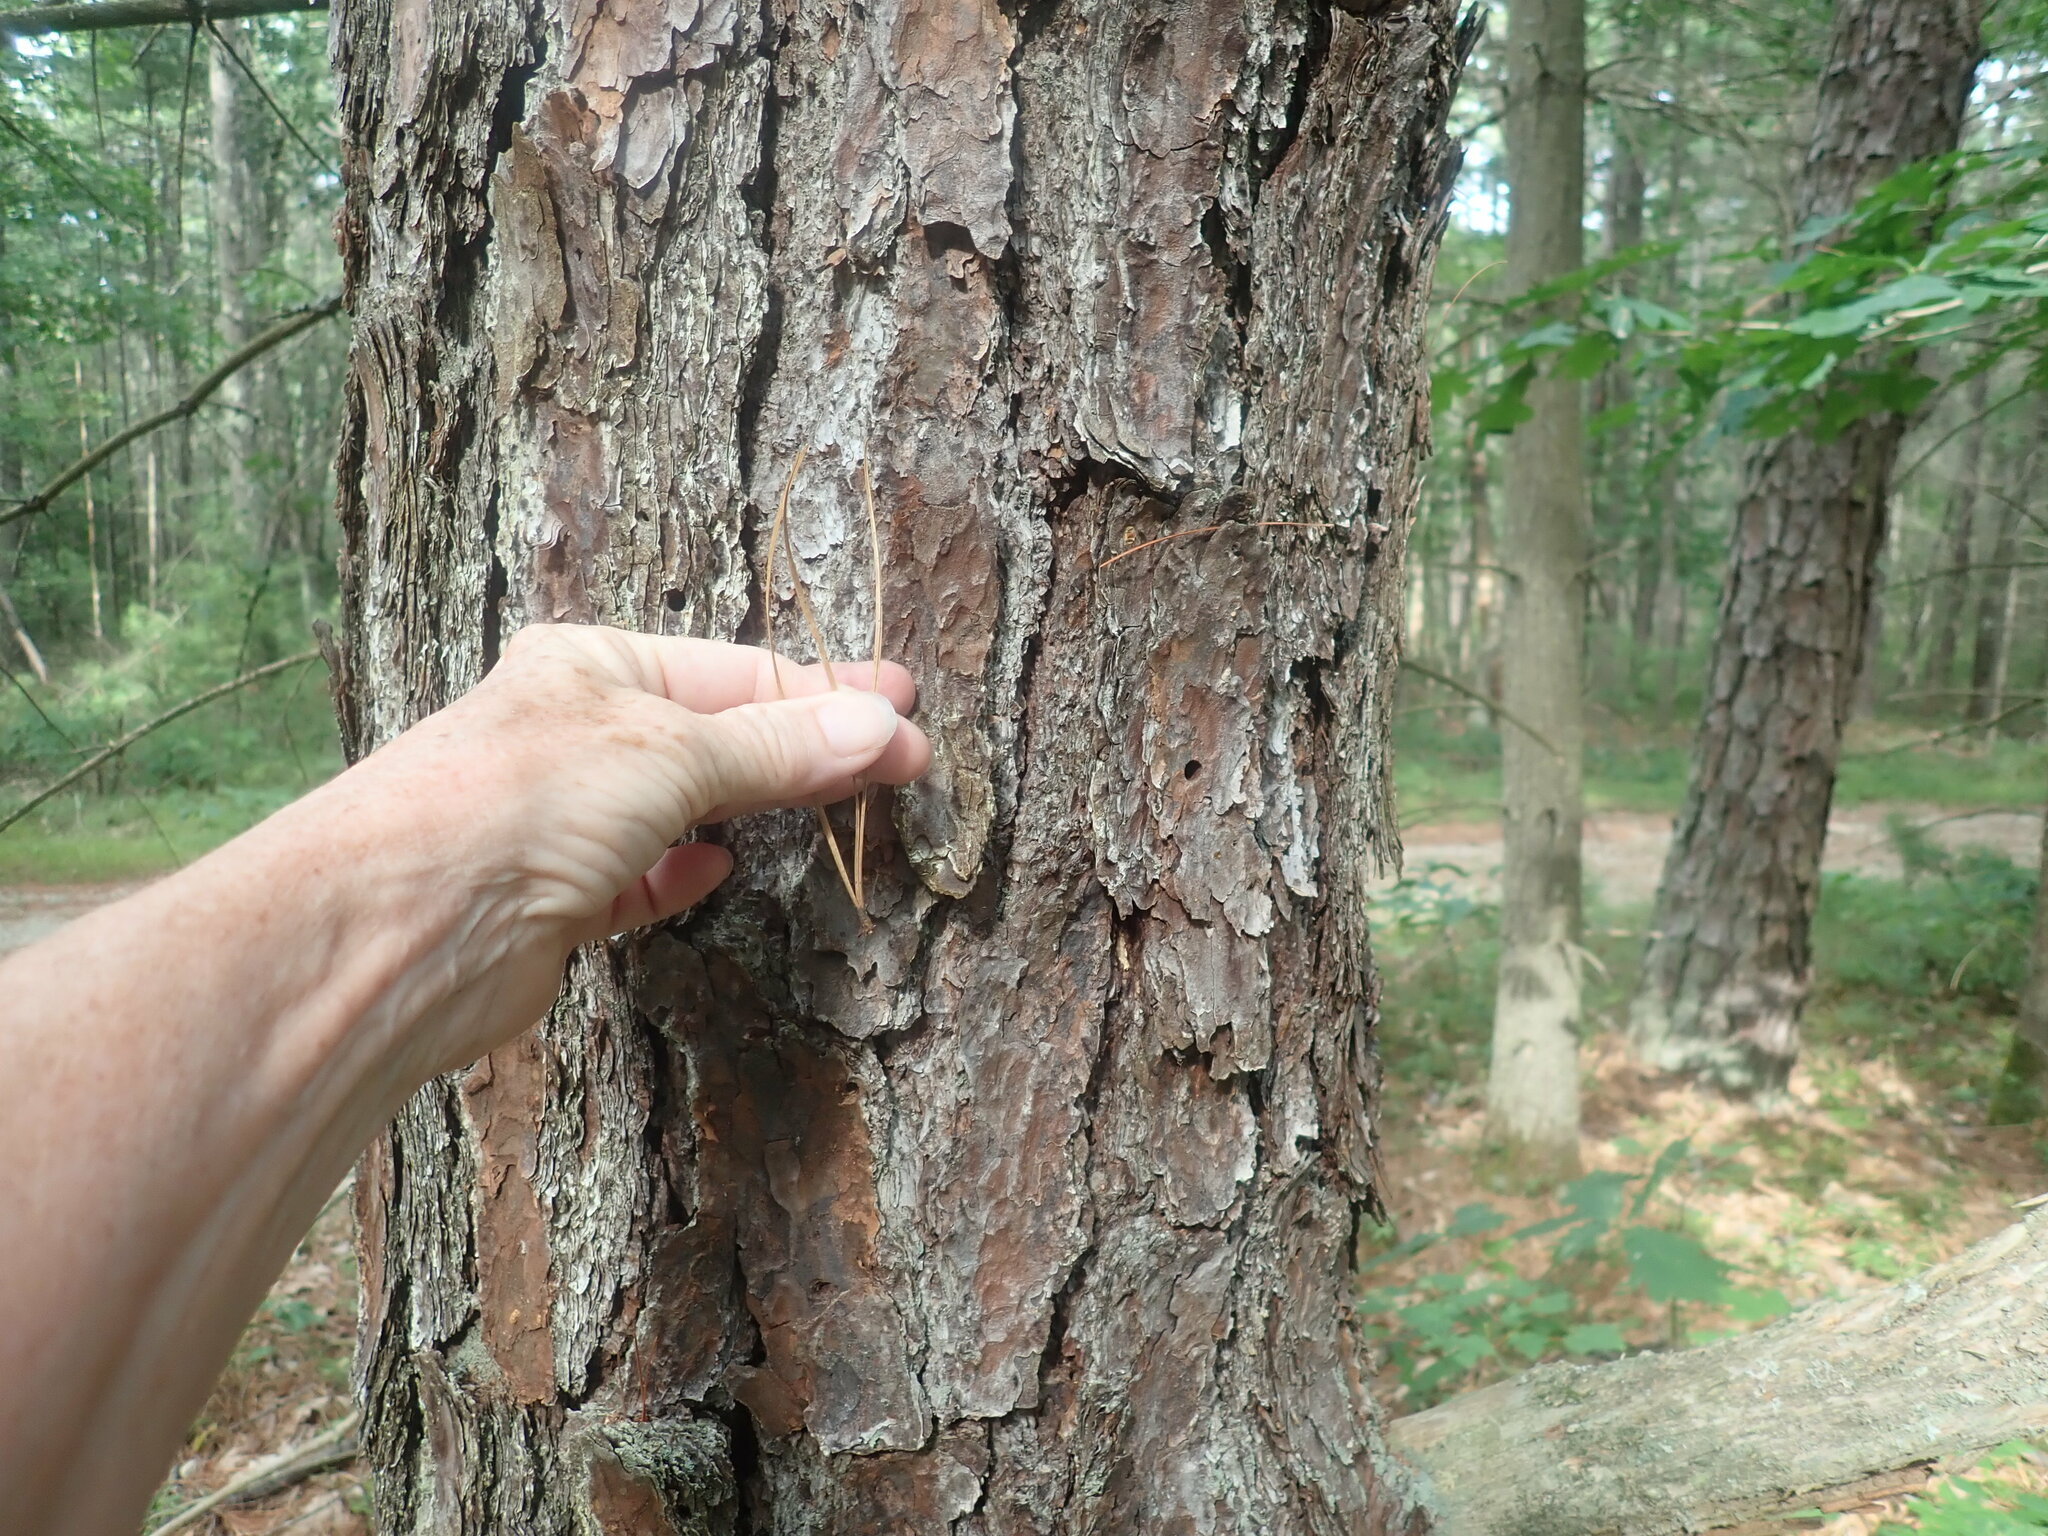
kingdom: Plantae
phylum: Tracheophyta
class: Pinopsida
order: Pinales
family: Pinaceae
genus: Pinus
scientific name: Pinus rigida
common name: Pitch pine
